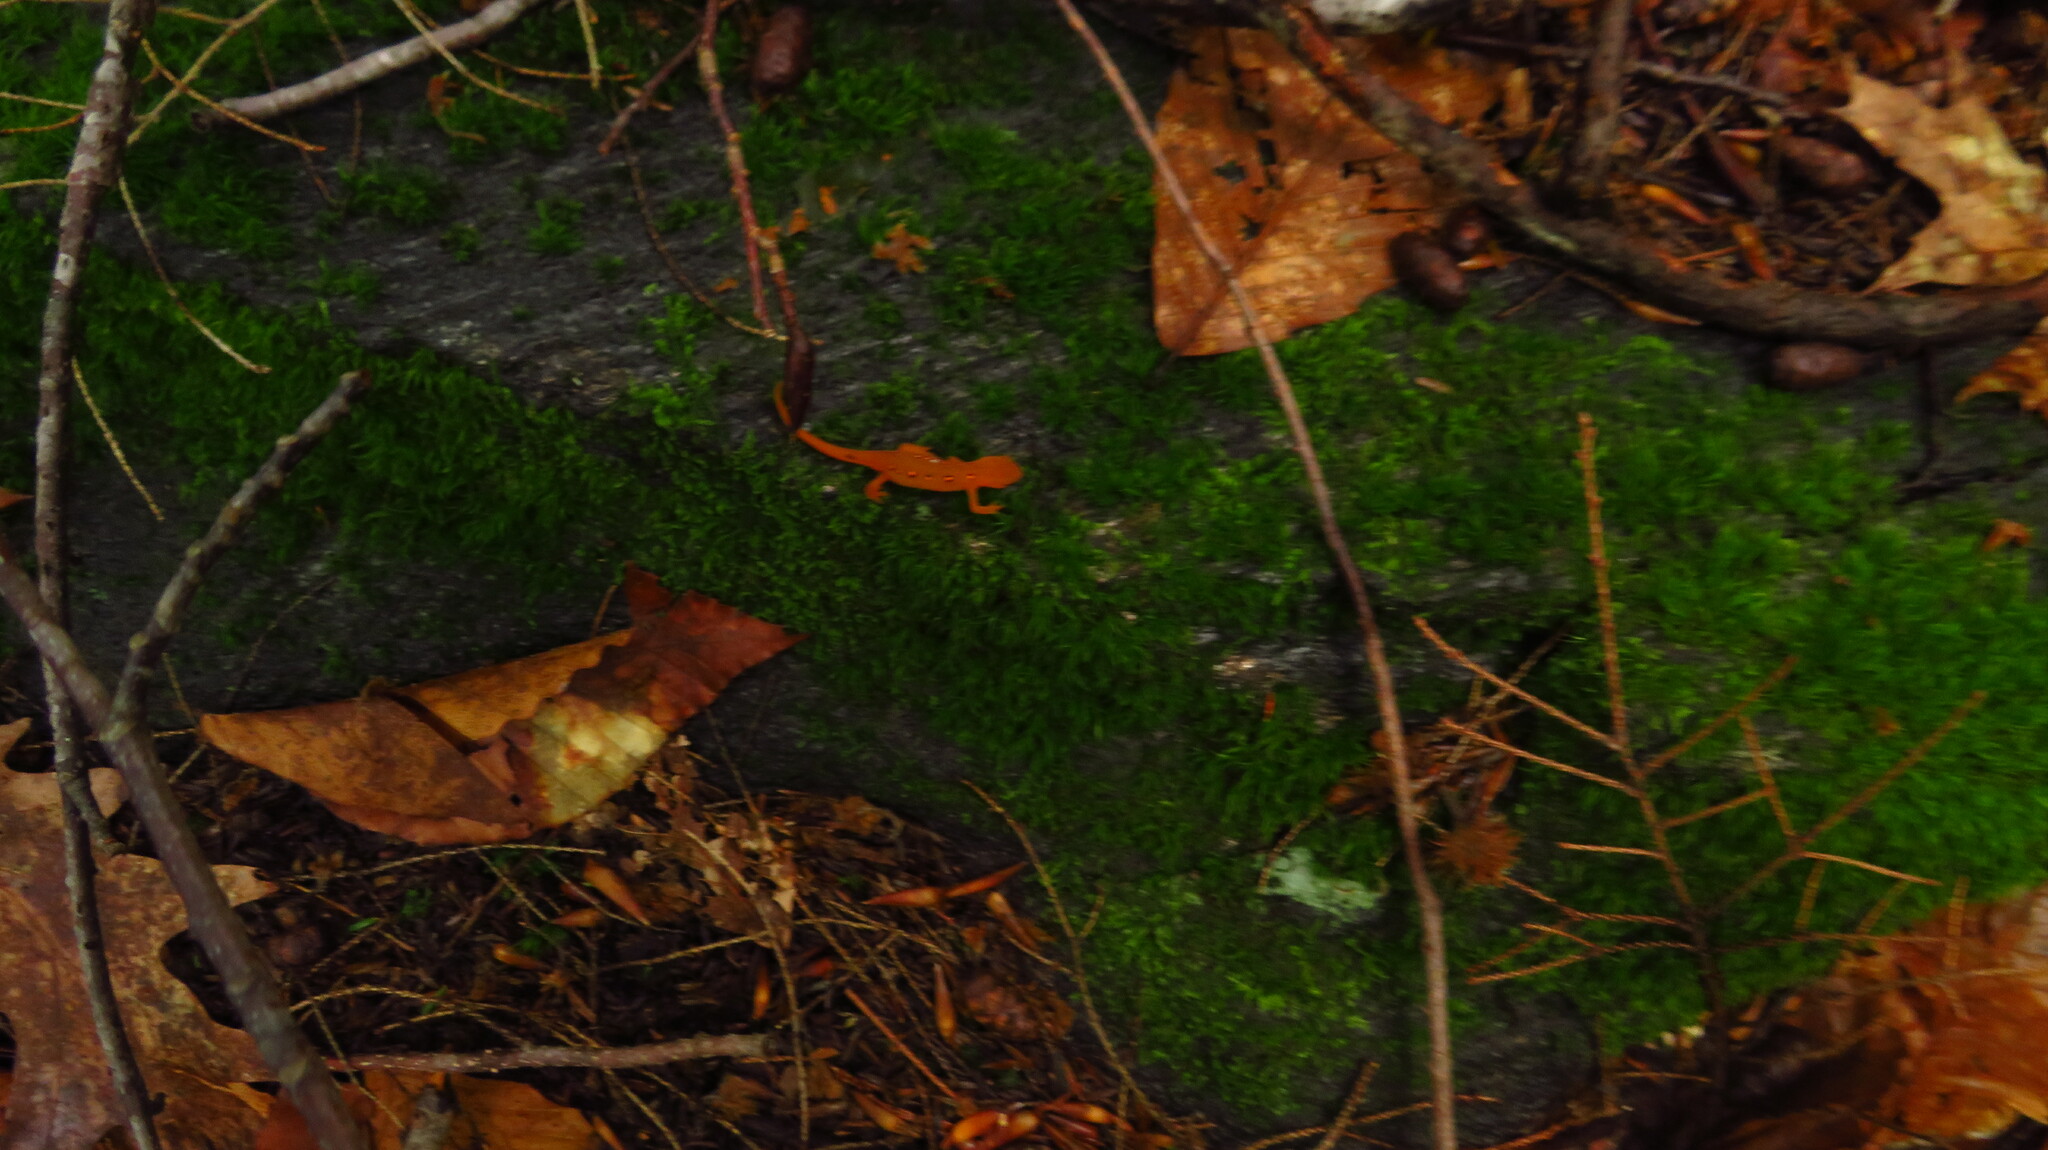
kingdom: Animalia
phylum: Chordata
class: Amphibia
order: Caudata
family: Salamandridae
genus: Notophthalmus
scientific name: Notophthalmus viridescens
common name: Eastern newt
